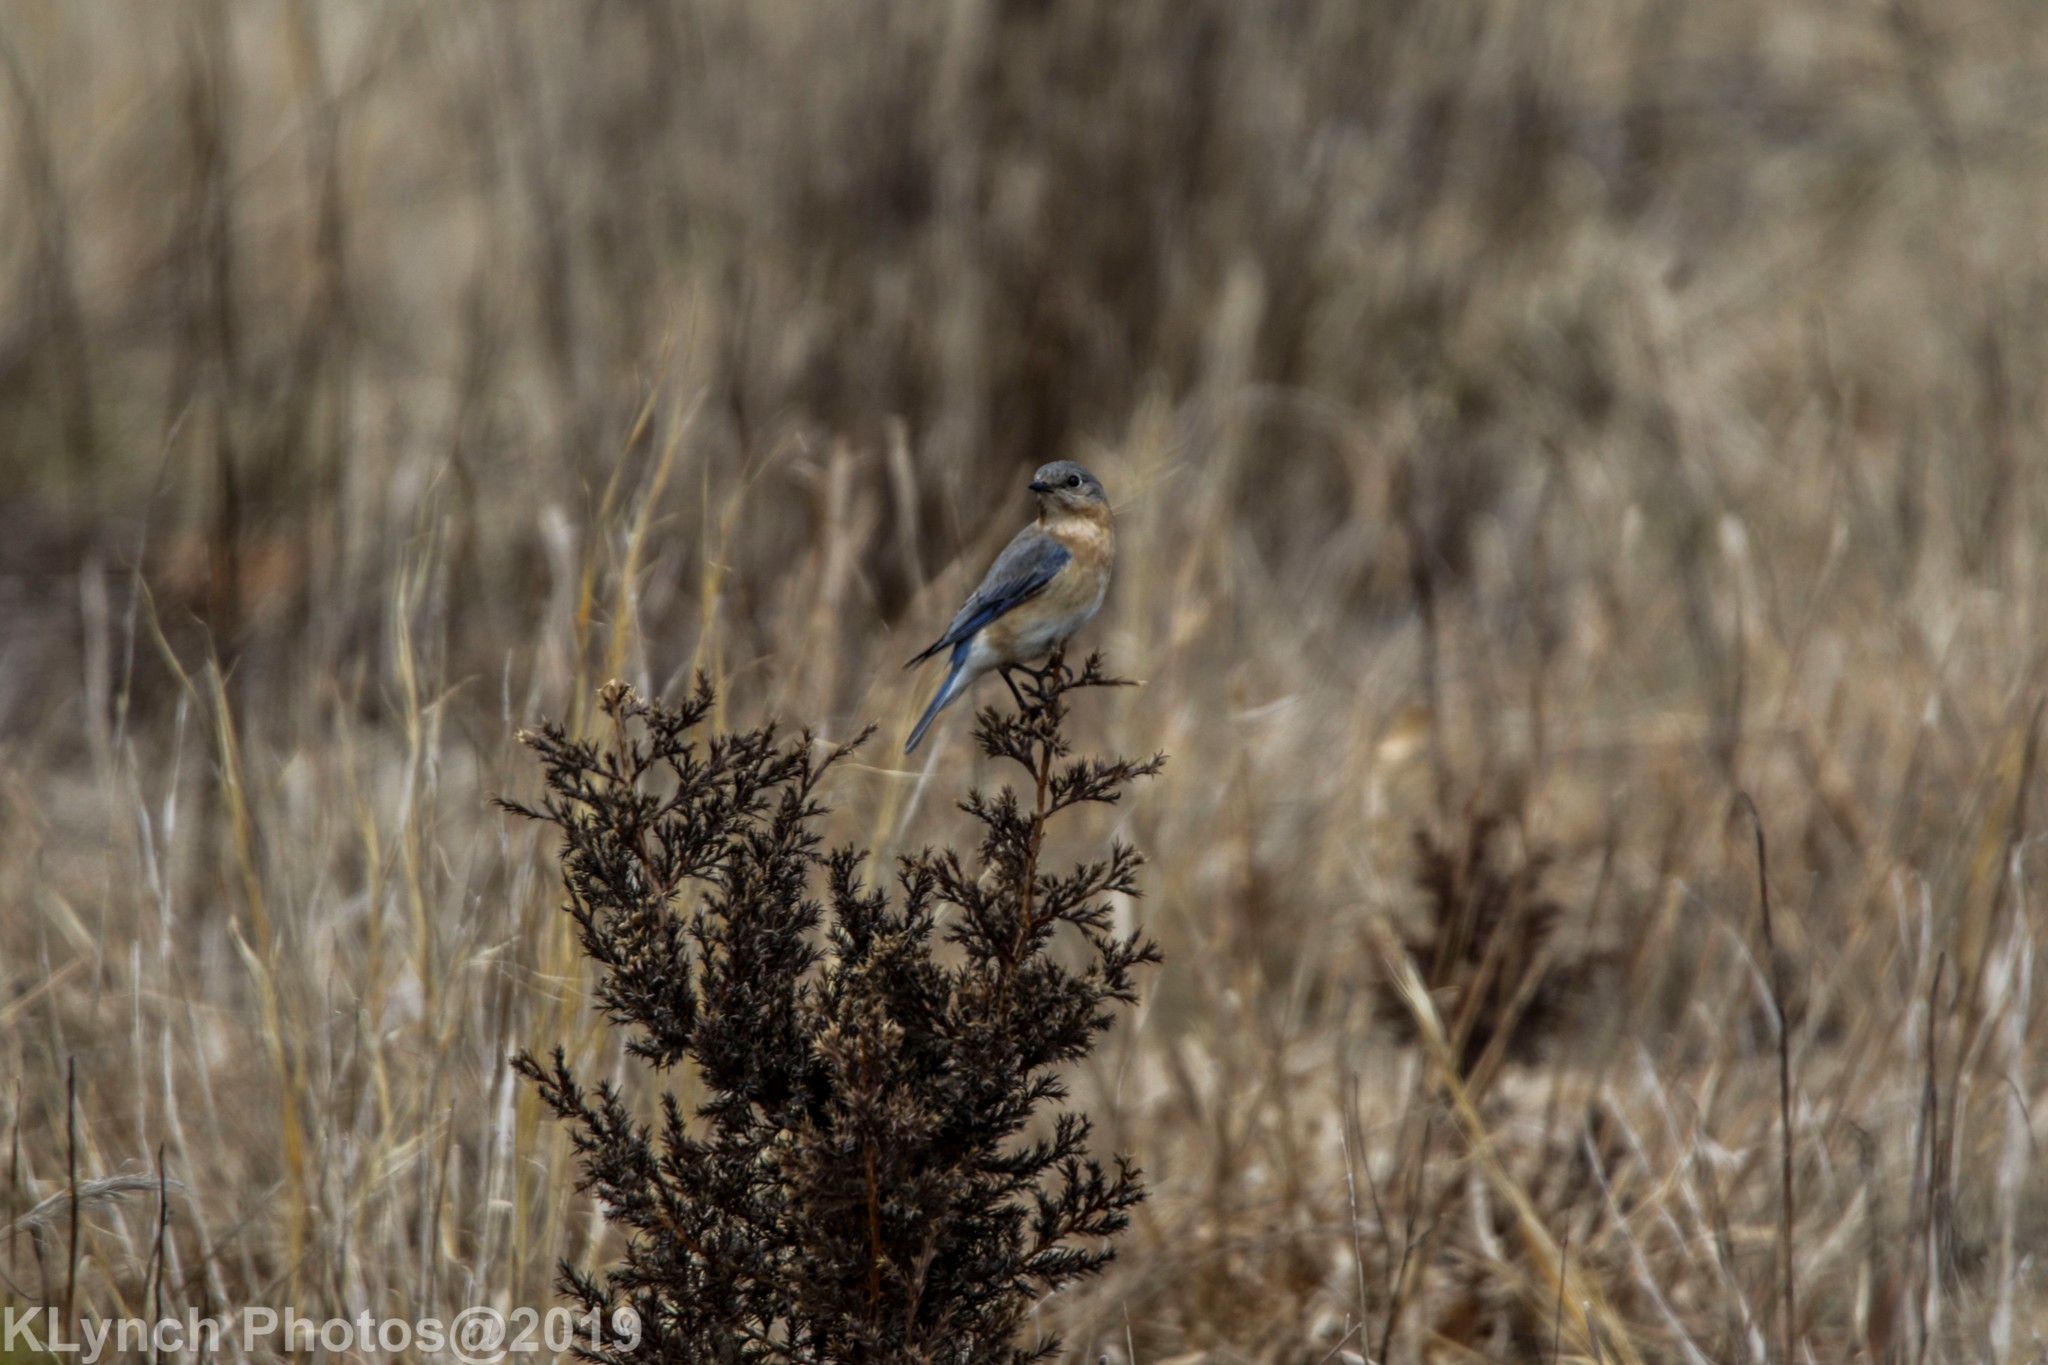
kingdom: Animalia
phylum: Chordata
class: Aves
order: Passeriformes
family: Turdidae
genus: Sialia
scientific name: Sialia sialis
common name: Eastern bluebird
